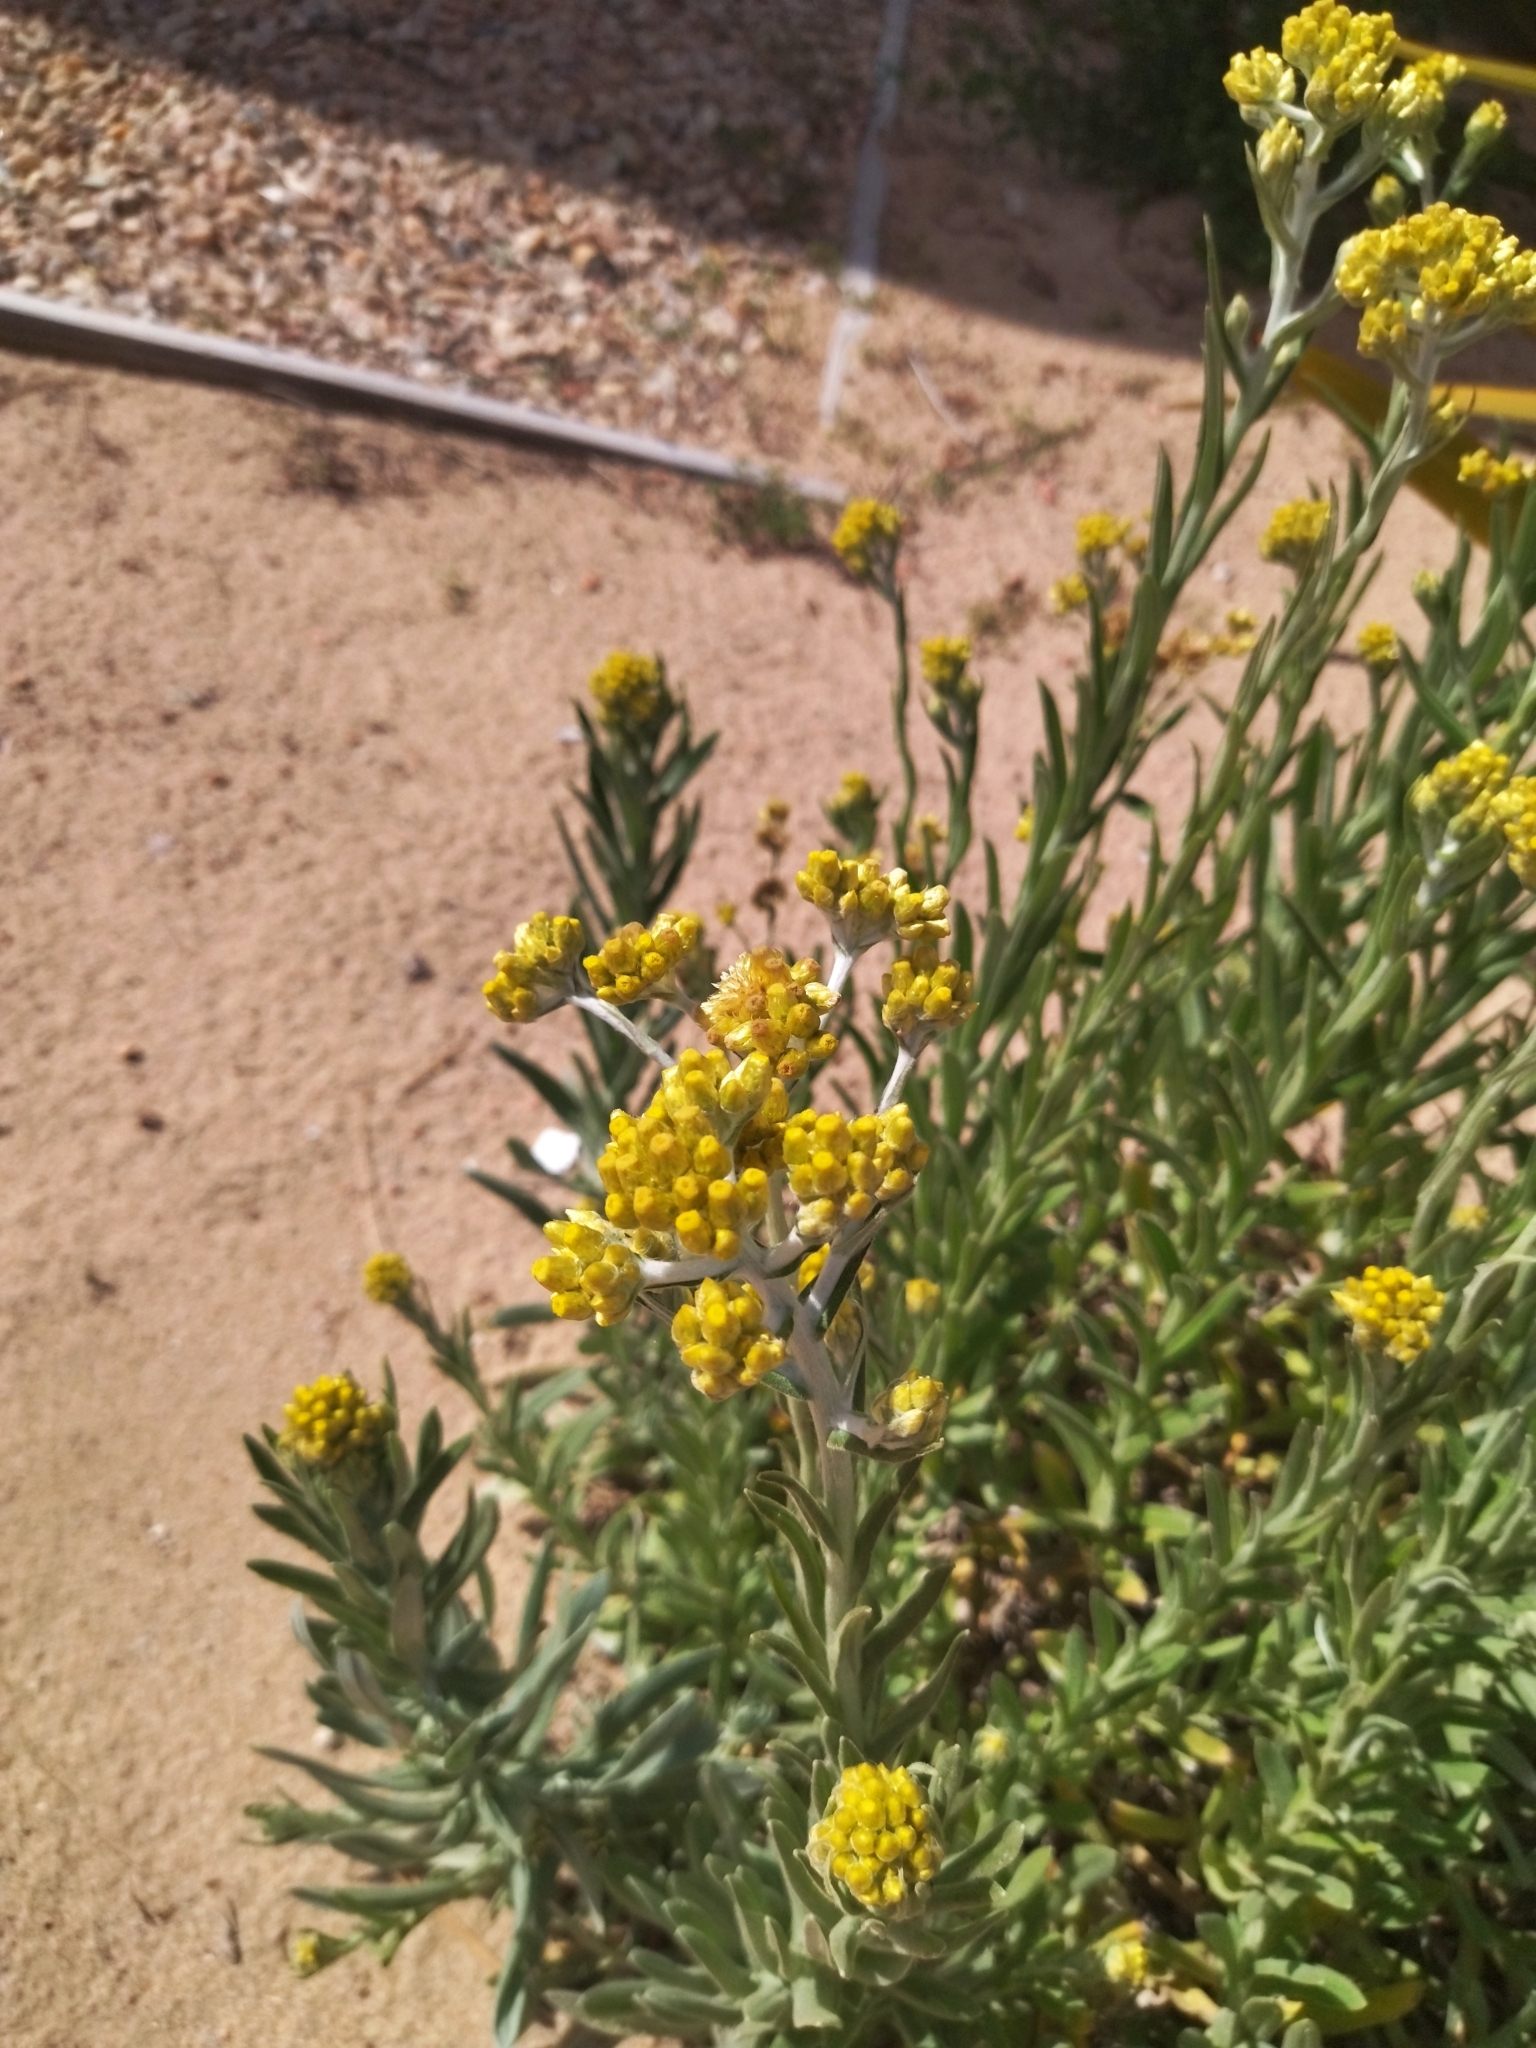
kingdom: Plantae
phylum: Tracheophyta
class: Magnoliopsida
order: Asterales
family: Asteraceae
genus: Pseudognaphalium
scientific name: Pseudognaphalium cheiranthifolium
